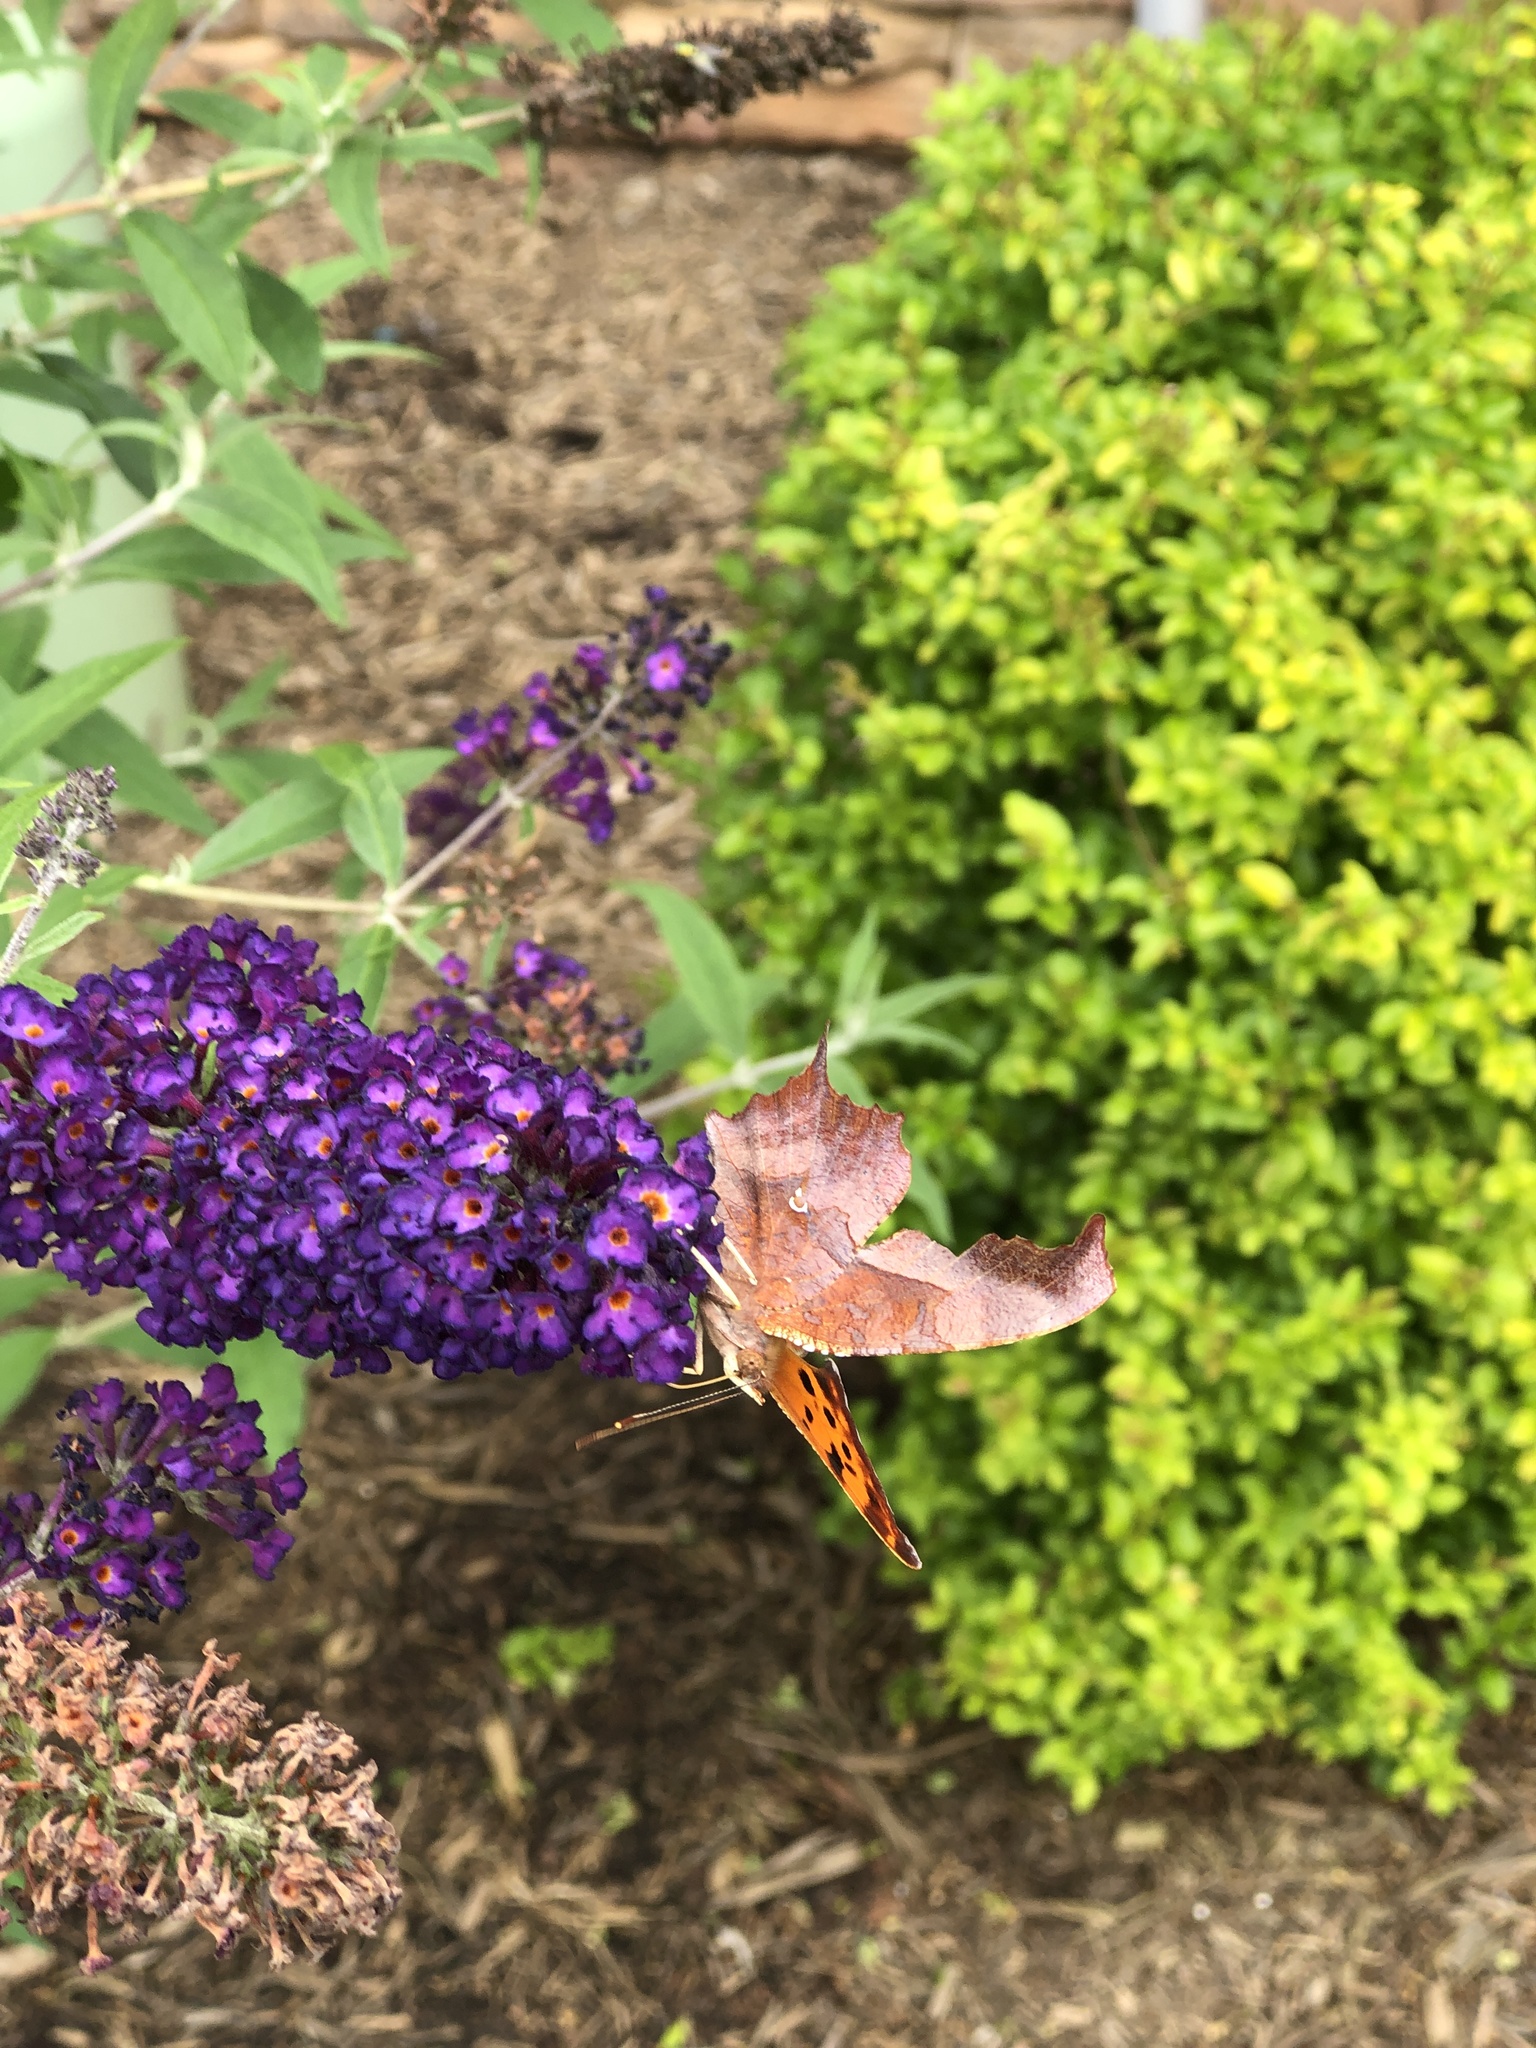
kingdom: Animalia
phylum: Arthropoda
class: Insecta
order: Lepidoptera
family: Nymphalidae
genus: Polygonia
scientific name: Polygonia interrogationis
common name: Question mark
